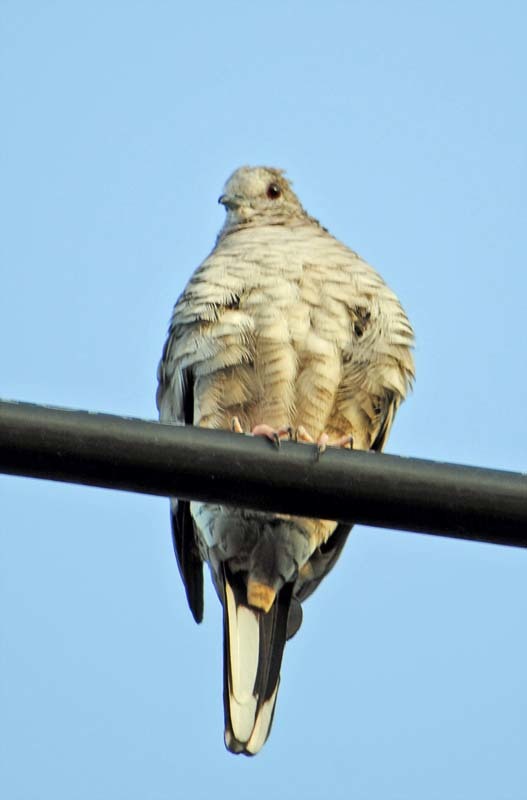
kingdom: Animalia
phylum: Chordata
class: Aves
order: Columbiformes
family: Columbidae
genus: Columbina
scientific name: Columbina inca
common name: Inca dove
